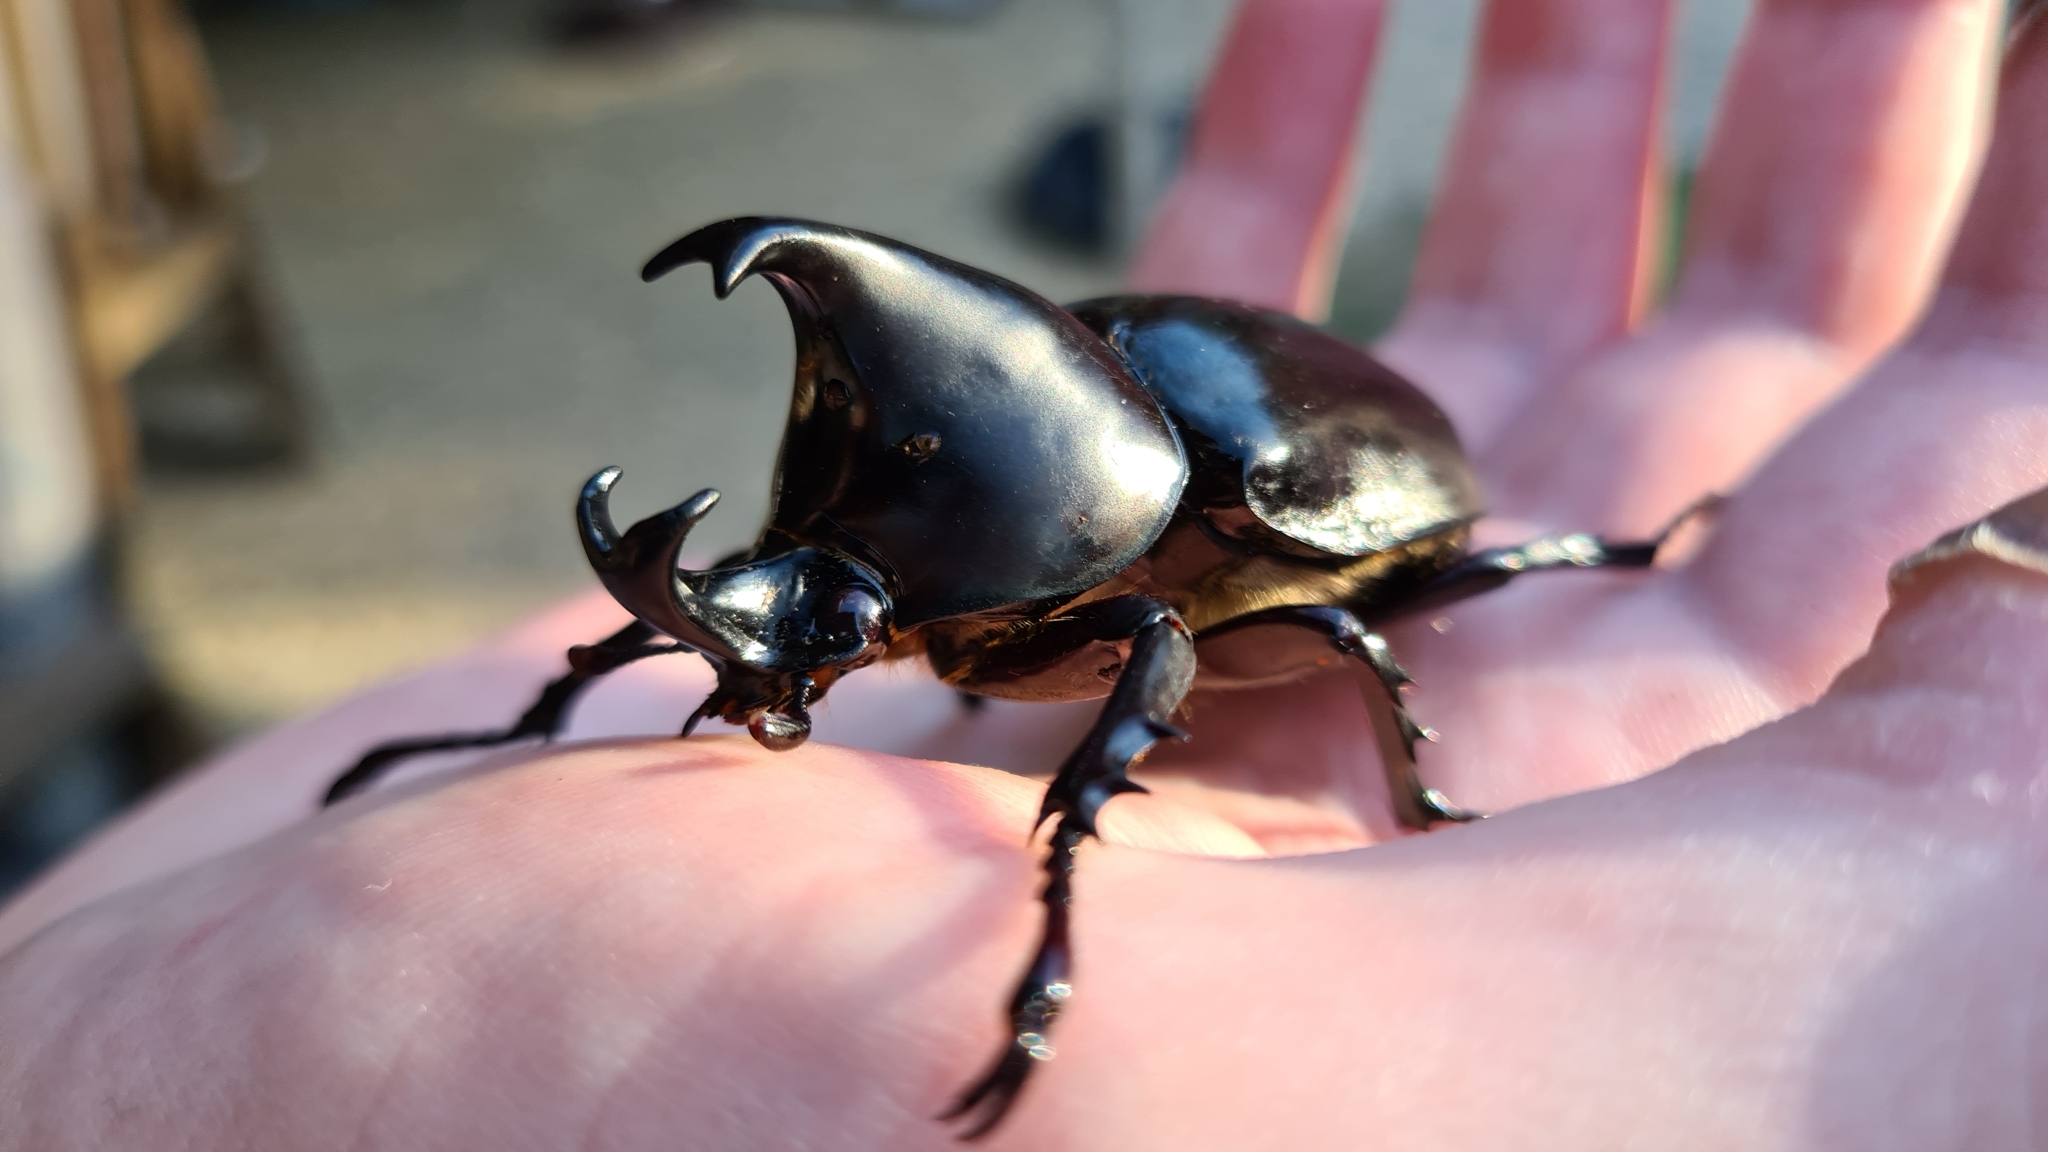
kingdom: Animalia
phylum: Arthropoda
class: Insecta
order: Coleoptera
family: Scarabaeidae
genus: Xylotrupes
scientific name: Xylotrupes australicus
